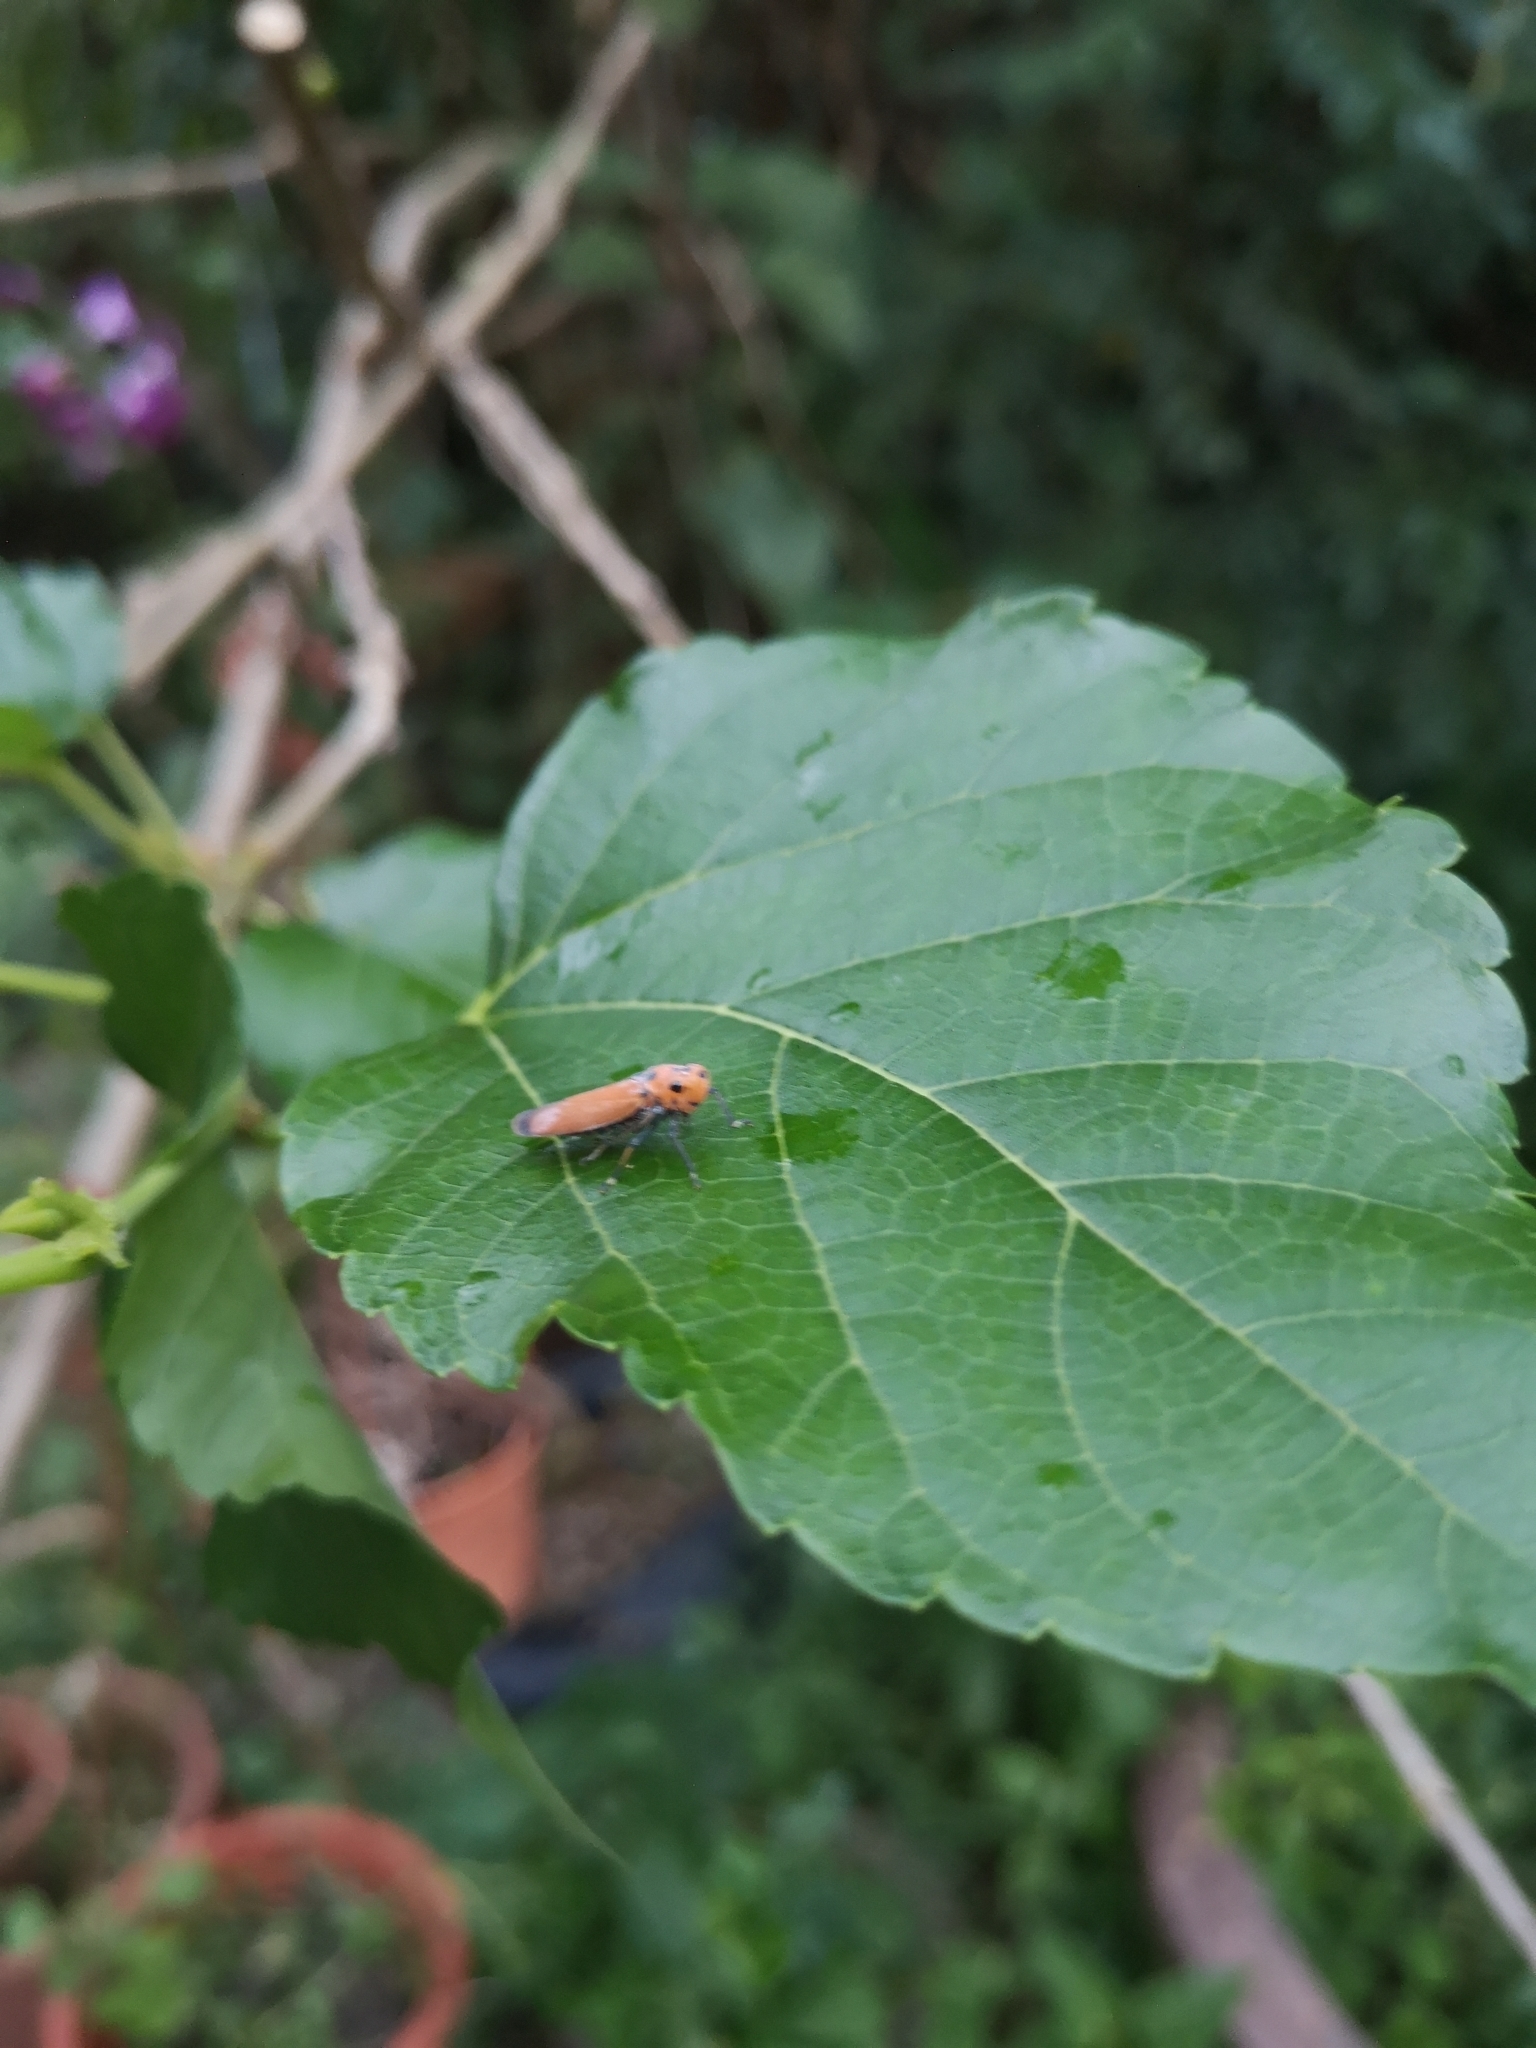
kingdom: Animalia
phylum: Arthropoda
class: Insecta
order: Hemiptera
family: Cicadellidae
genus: Bothrogonia
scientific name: Bothrogonia addita
